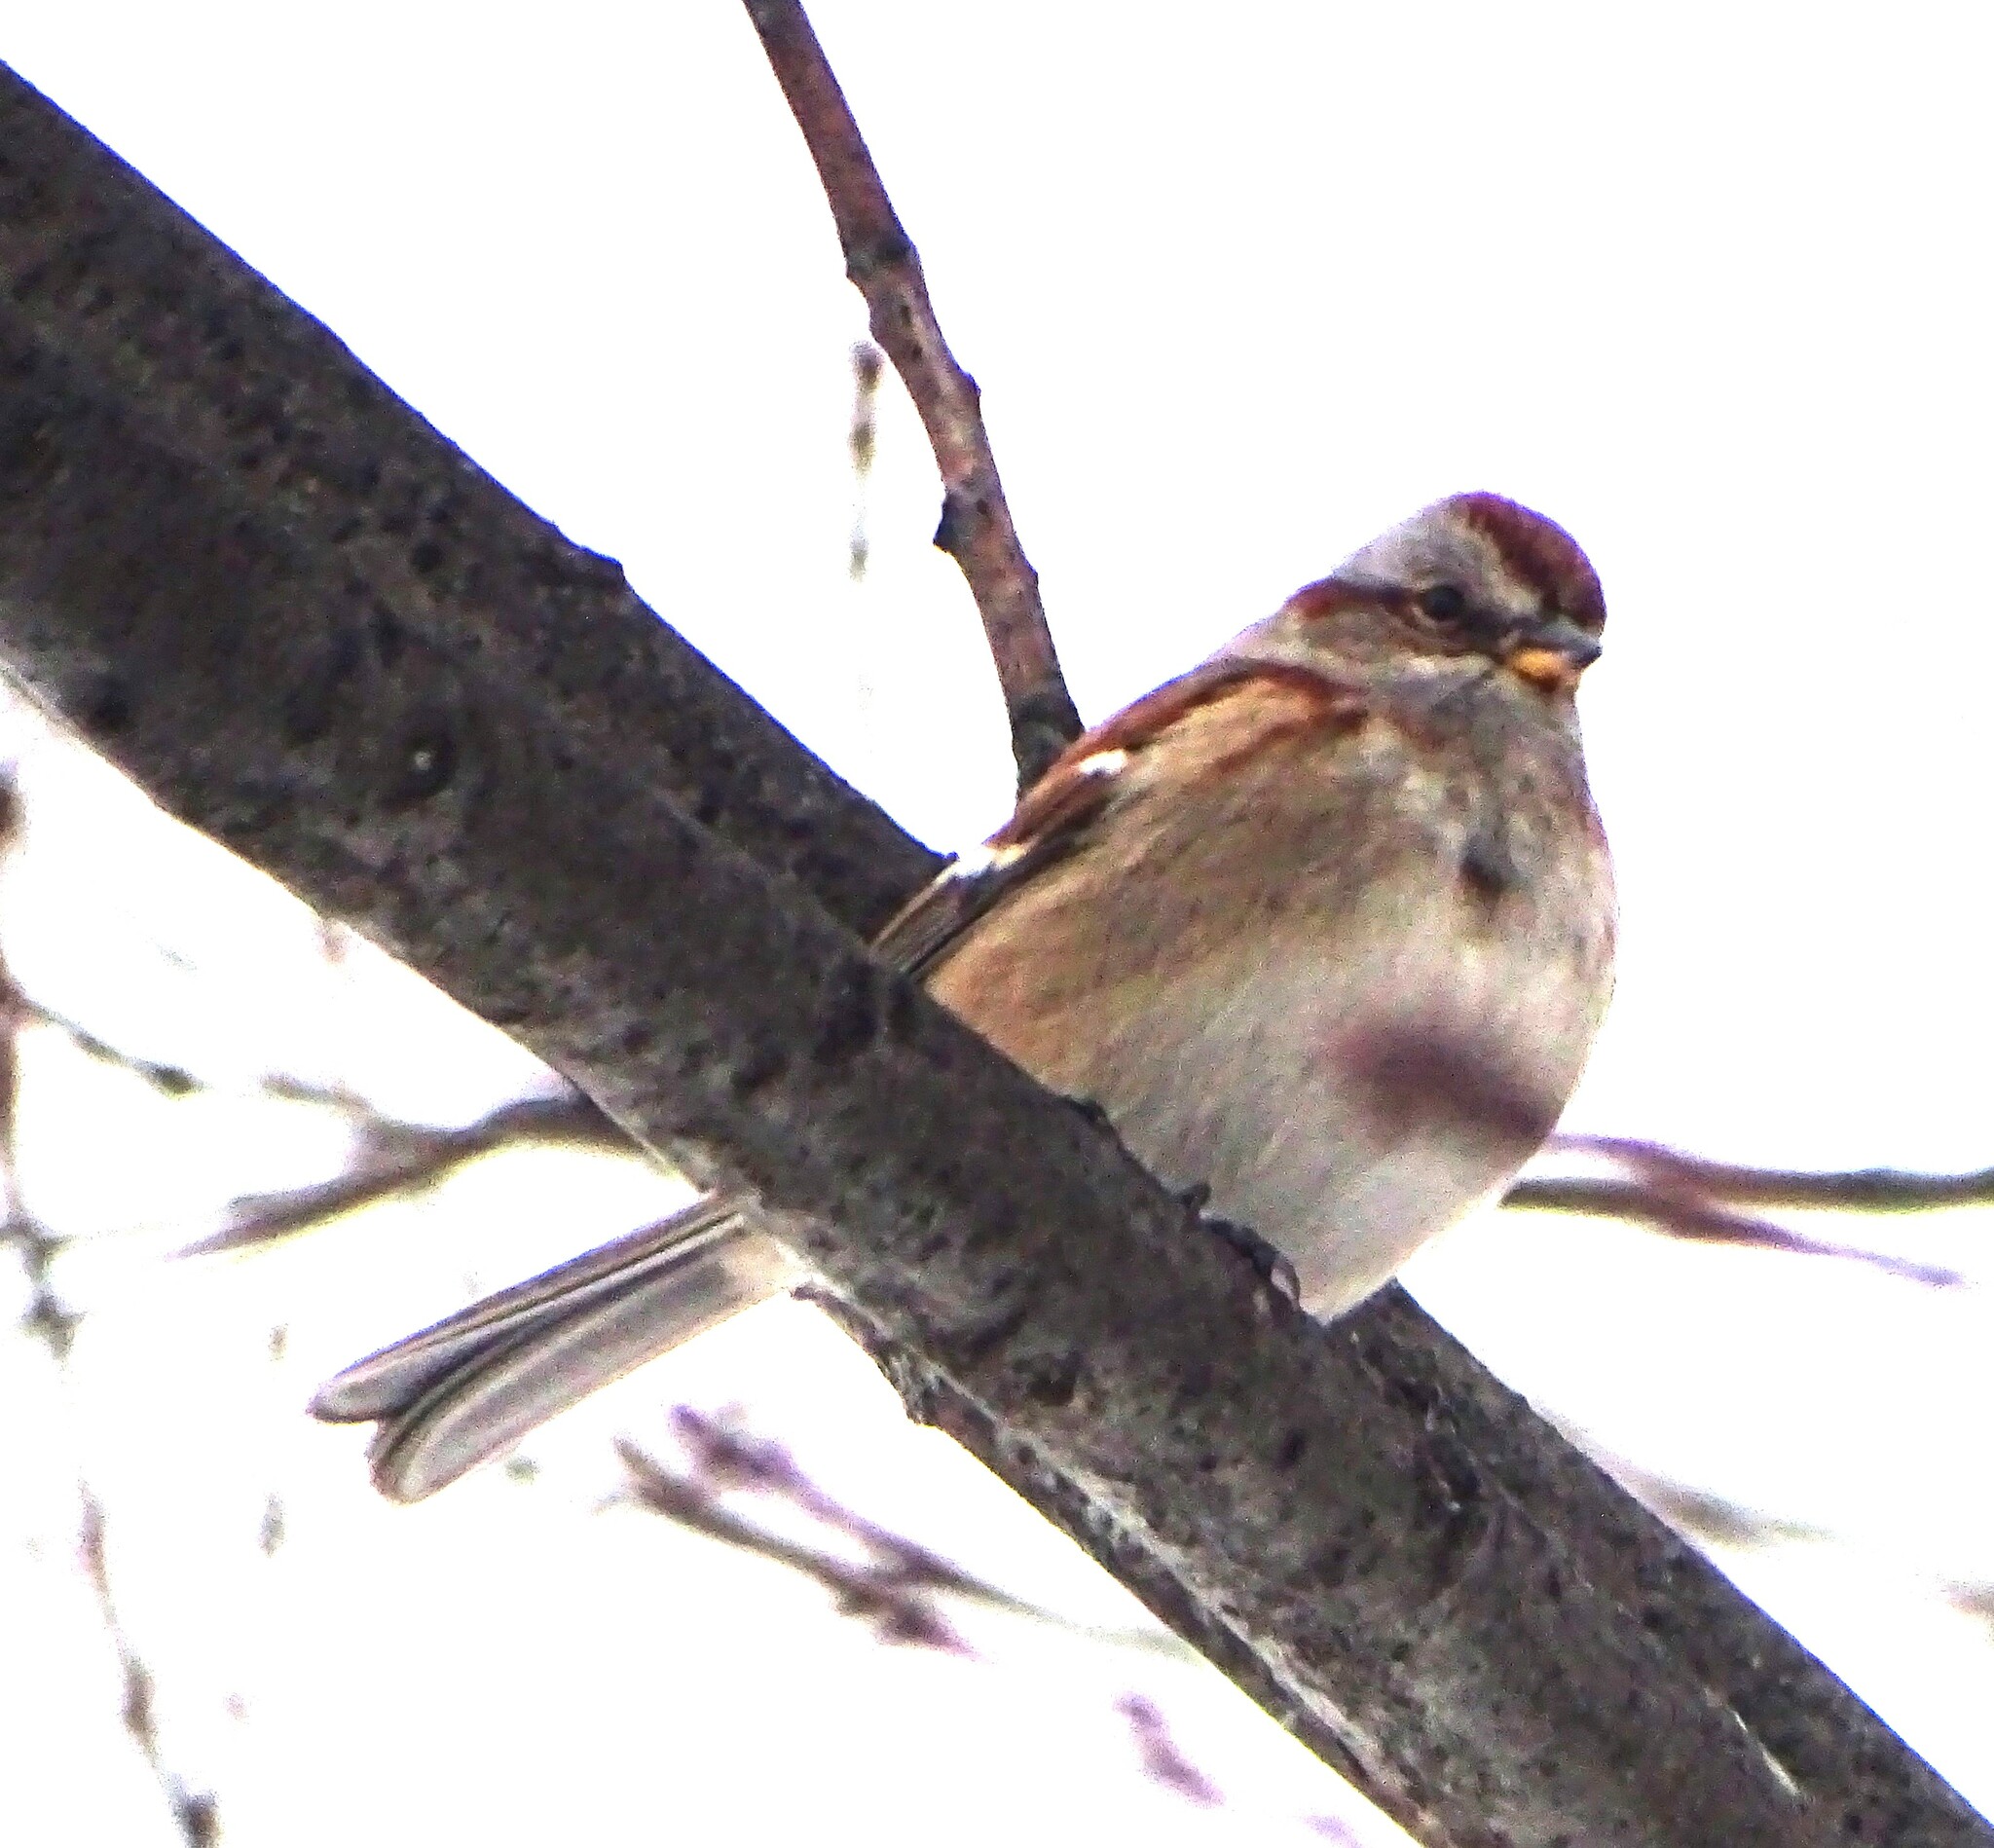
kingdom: Animalia
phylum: Chordata
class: Aves
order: Passeriformes
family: Passerellidae
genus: Spizelloides
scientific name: Spizelloides arborea
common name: American tree sparrow
